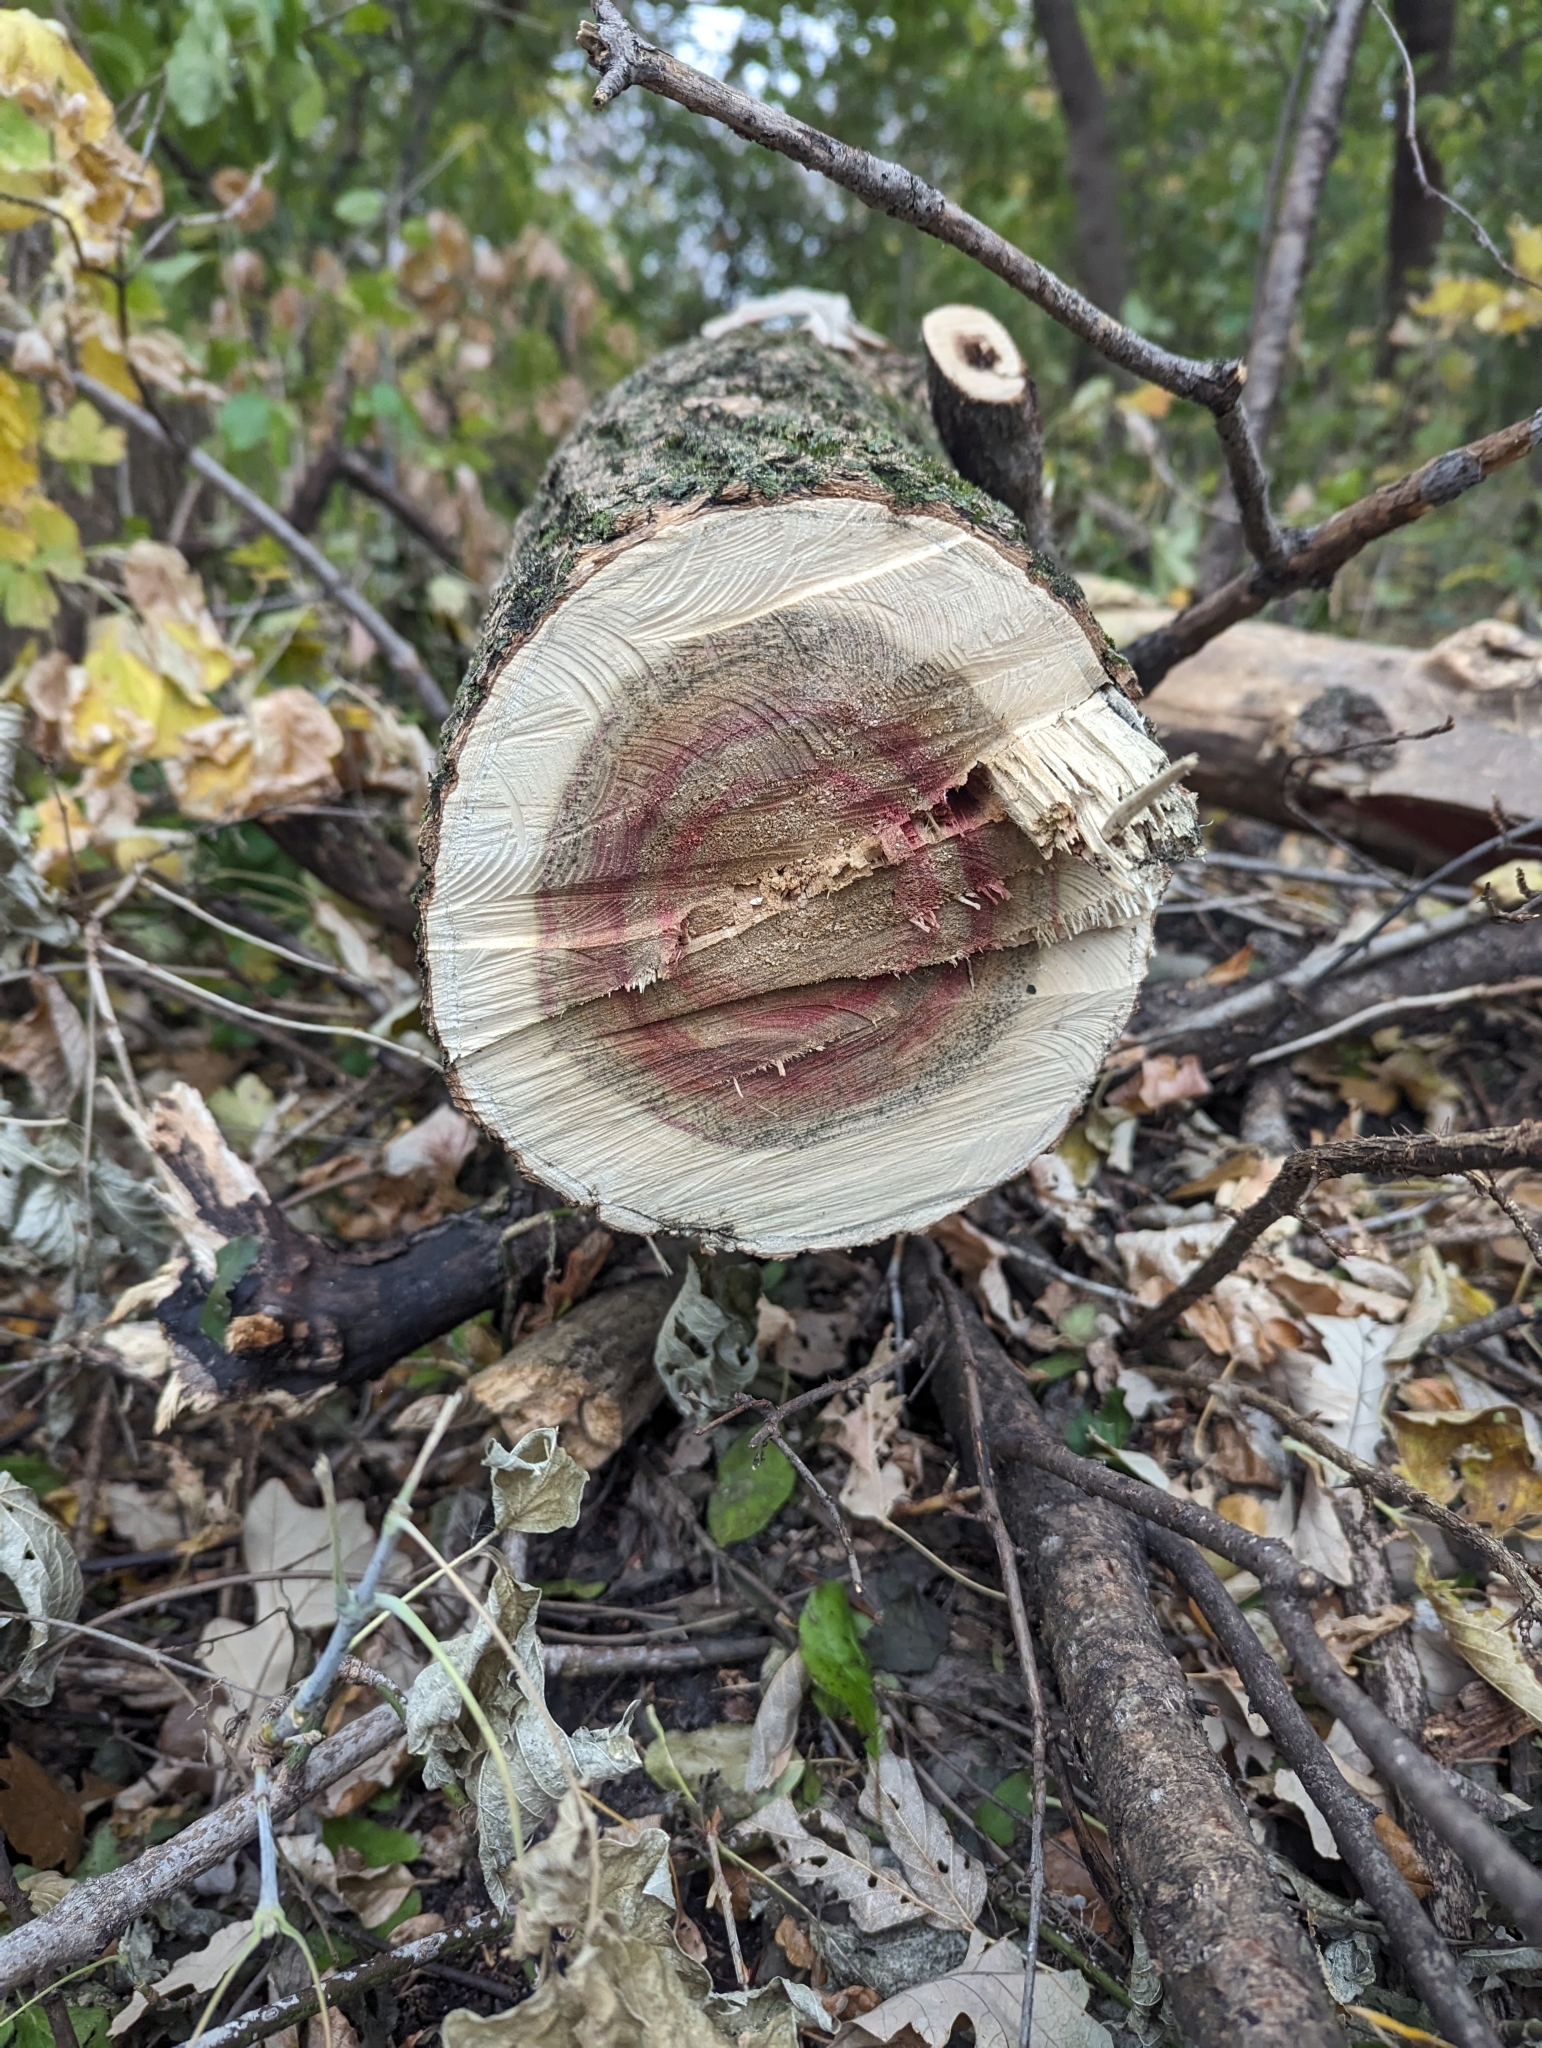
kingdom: Plantae
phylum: Tracheophyta
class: Magnoliopsida
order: Sapindales
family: Sapindaceae
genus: Acer
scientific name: Acer negundo
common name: Ashleaf maple
